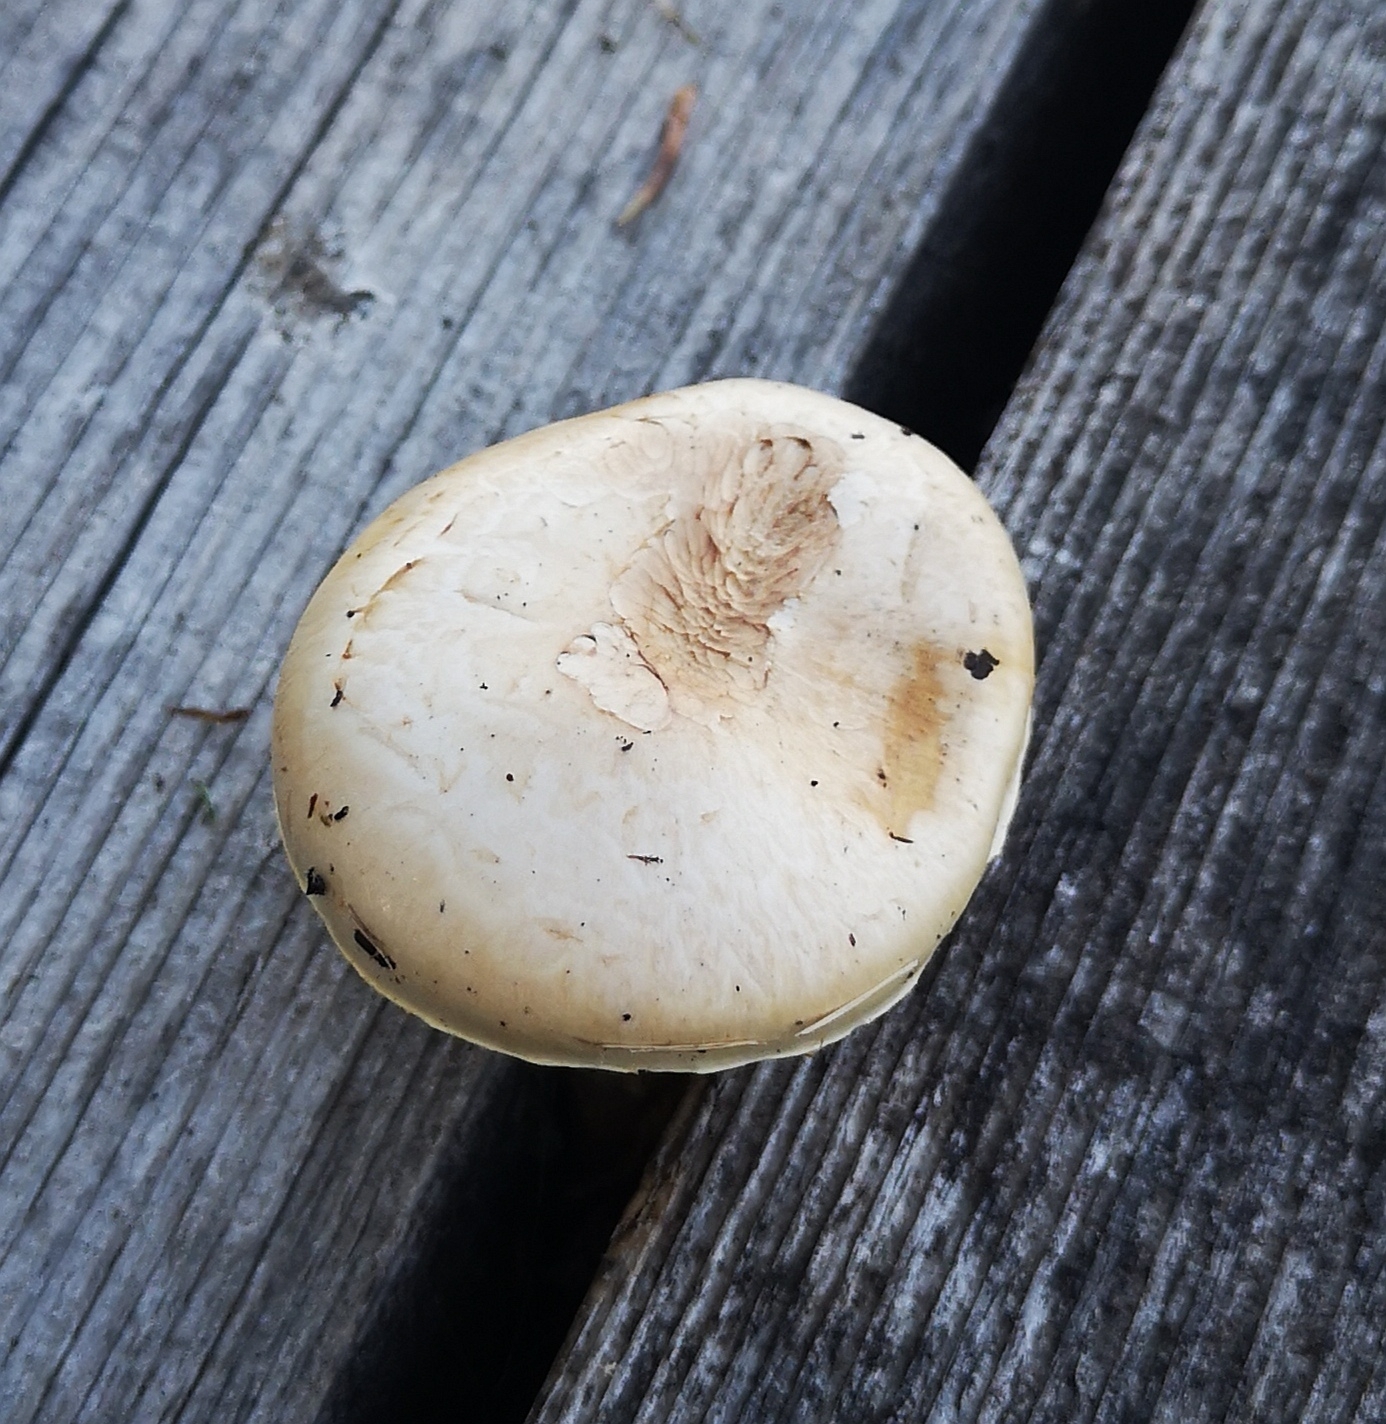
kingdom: Fungi
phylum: Basidiomycota
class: Agaricomycetes
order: Gloeophyllales
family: Gloeophyllaceae
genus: Neolentinus
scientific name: Neolentinus lepideus
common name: Scaly sawgill
